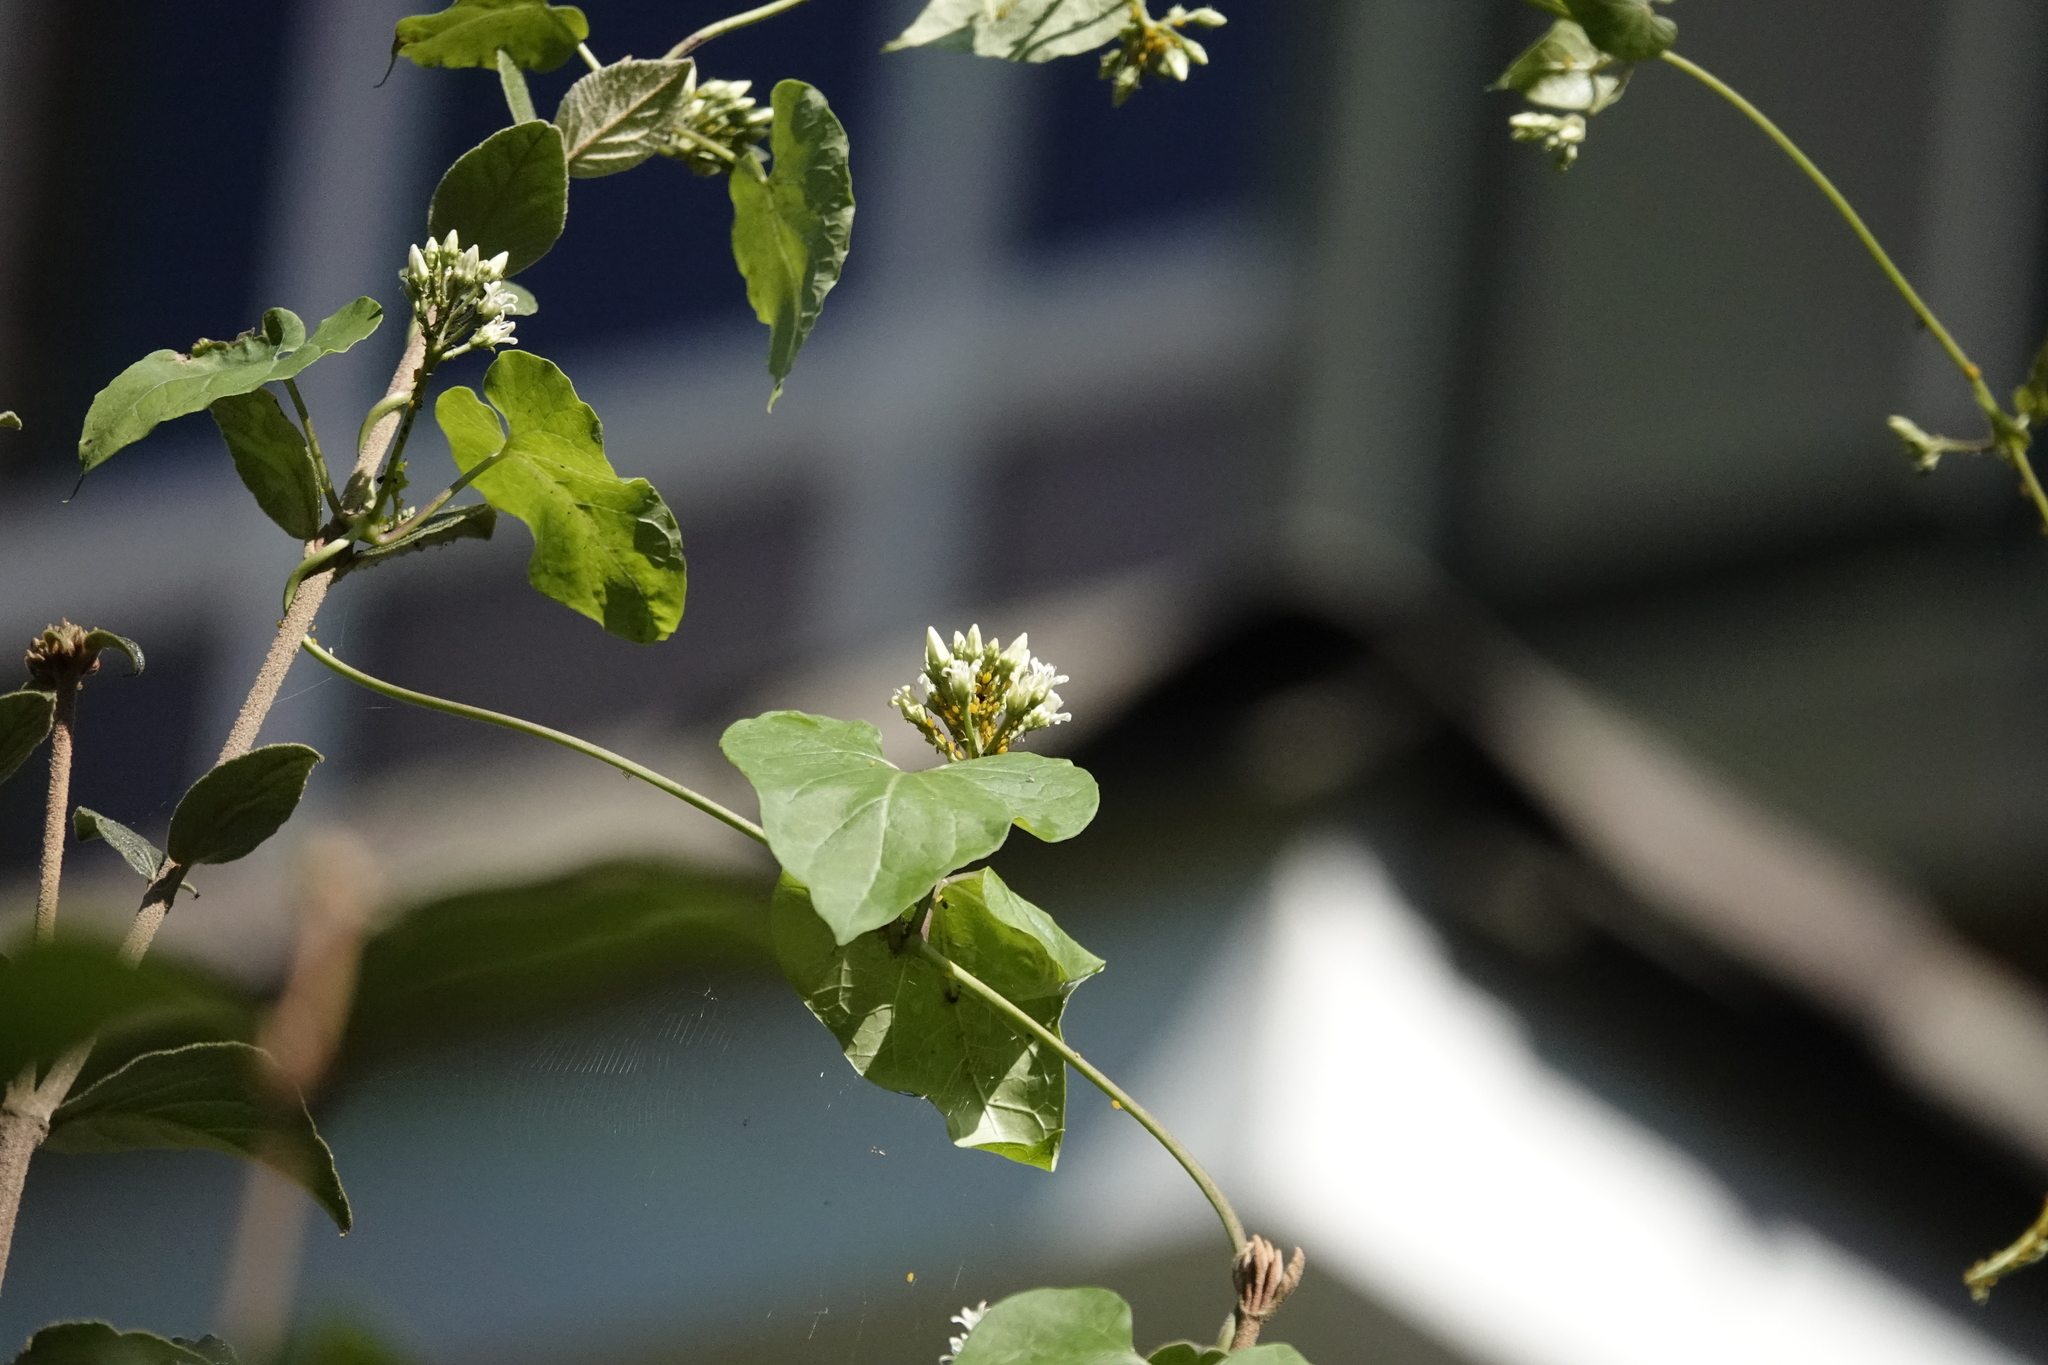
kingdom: Plantae
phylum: Tracheophyta
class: Magnoliopsida
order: Gentianales
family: Apocynaceae
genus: Cynanchum
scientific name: Cynanchum laeve
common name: Sandvine
